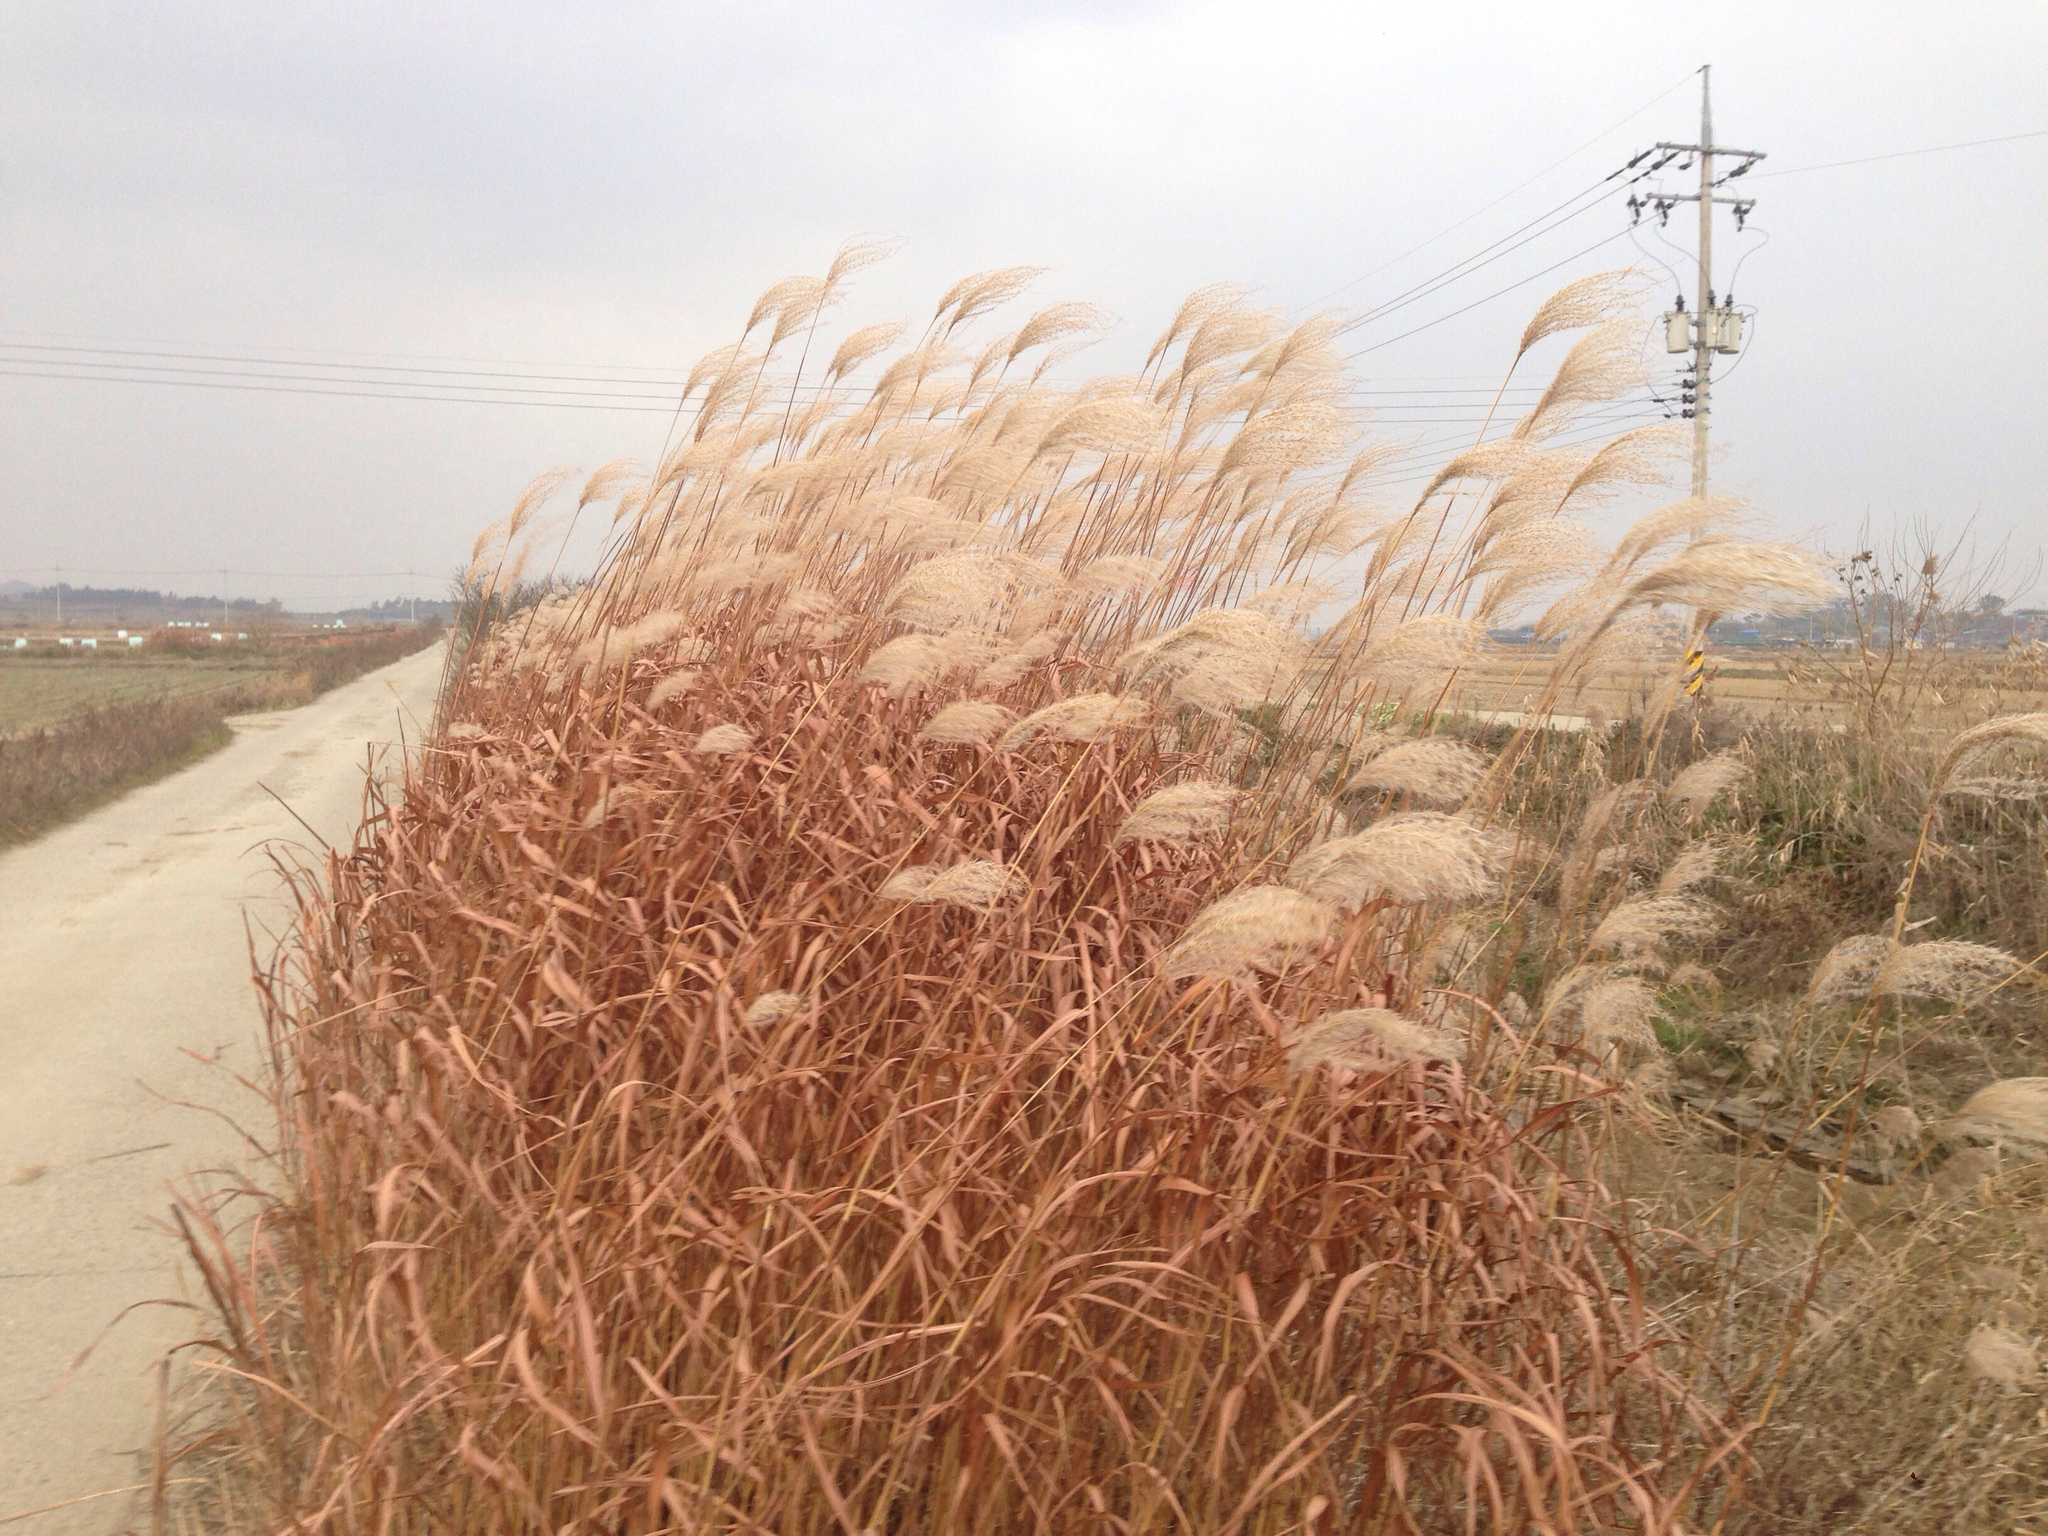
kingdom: Plantae
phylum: Tracheophyta
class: Liliopsida
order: Poales
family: Poaceae
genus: Miscanthus
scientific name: Miscanthus sinensis
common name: Chinese silvergrass
